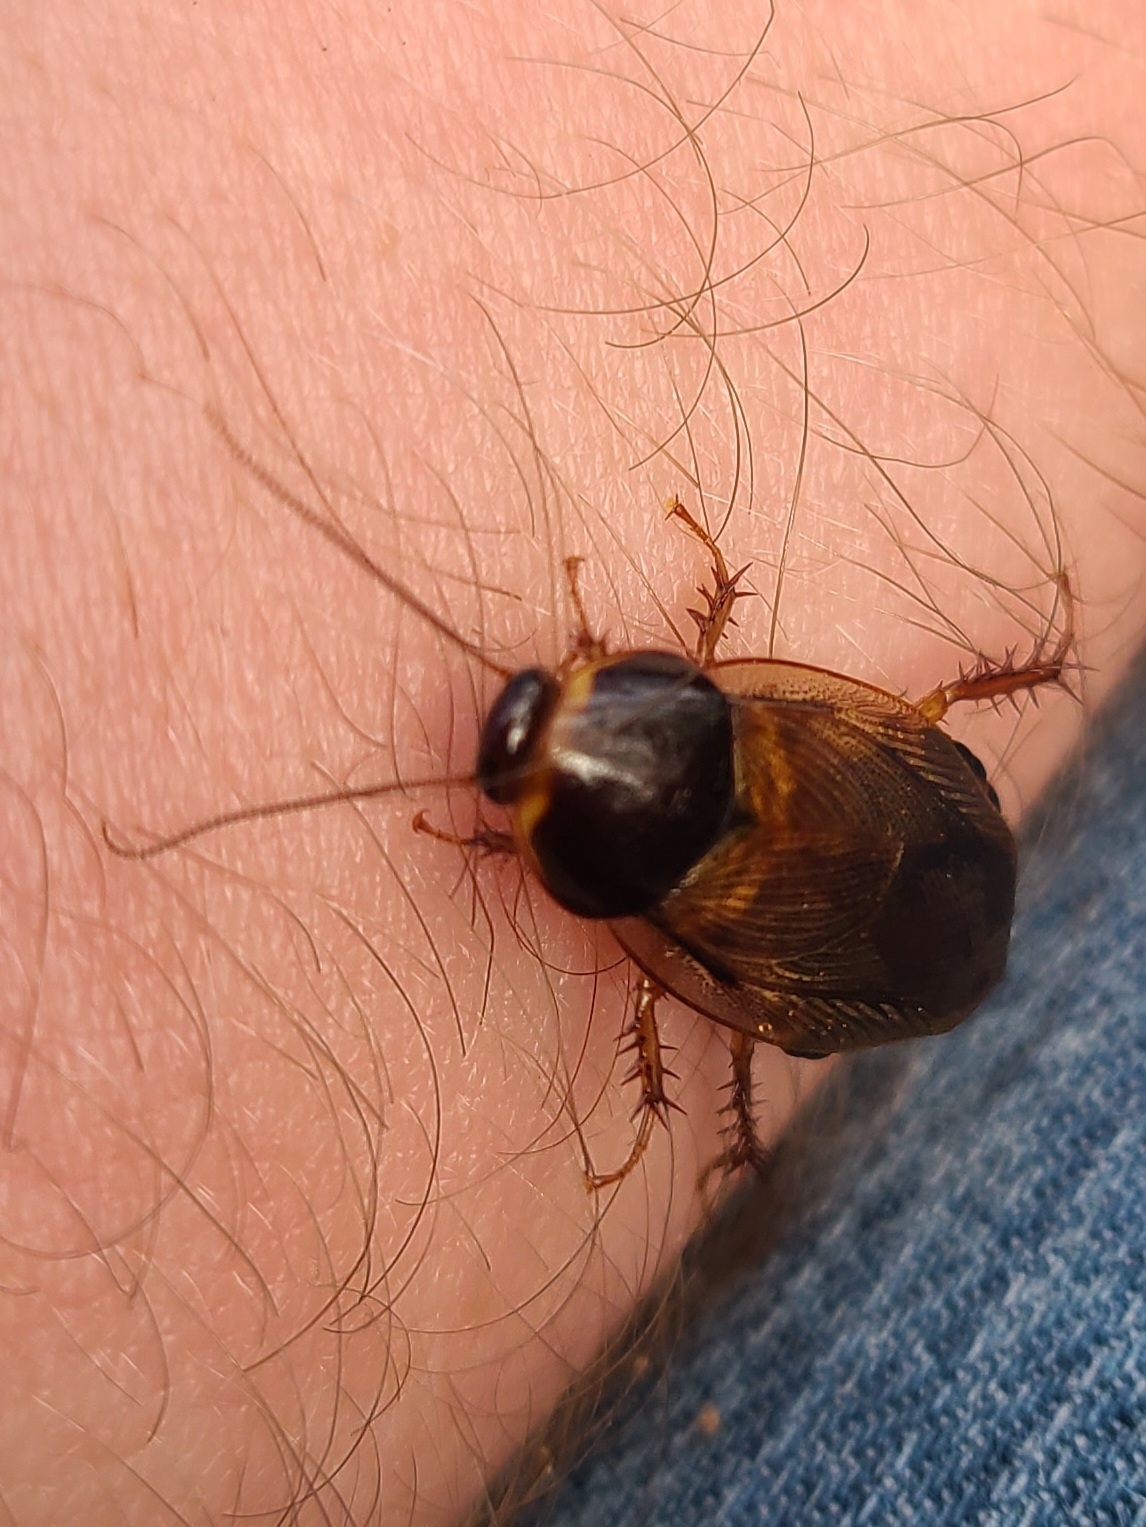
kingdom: Animalia
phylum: Arthropoda
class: Insecta
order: Blattodea
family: Blaberidae
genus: Pycnoscelus
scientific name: Pycnoscelus surinamensis
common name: Surinam cockroach
